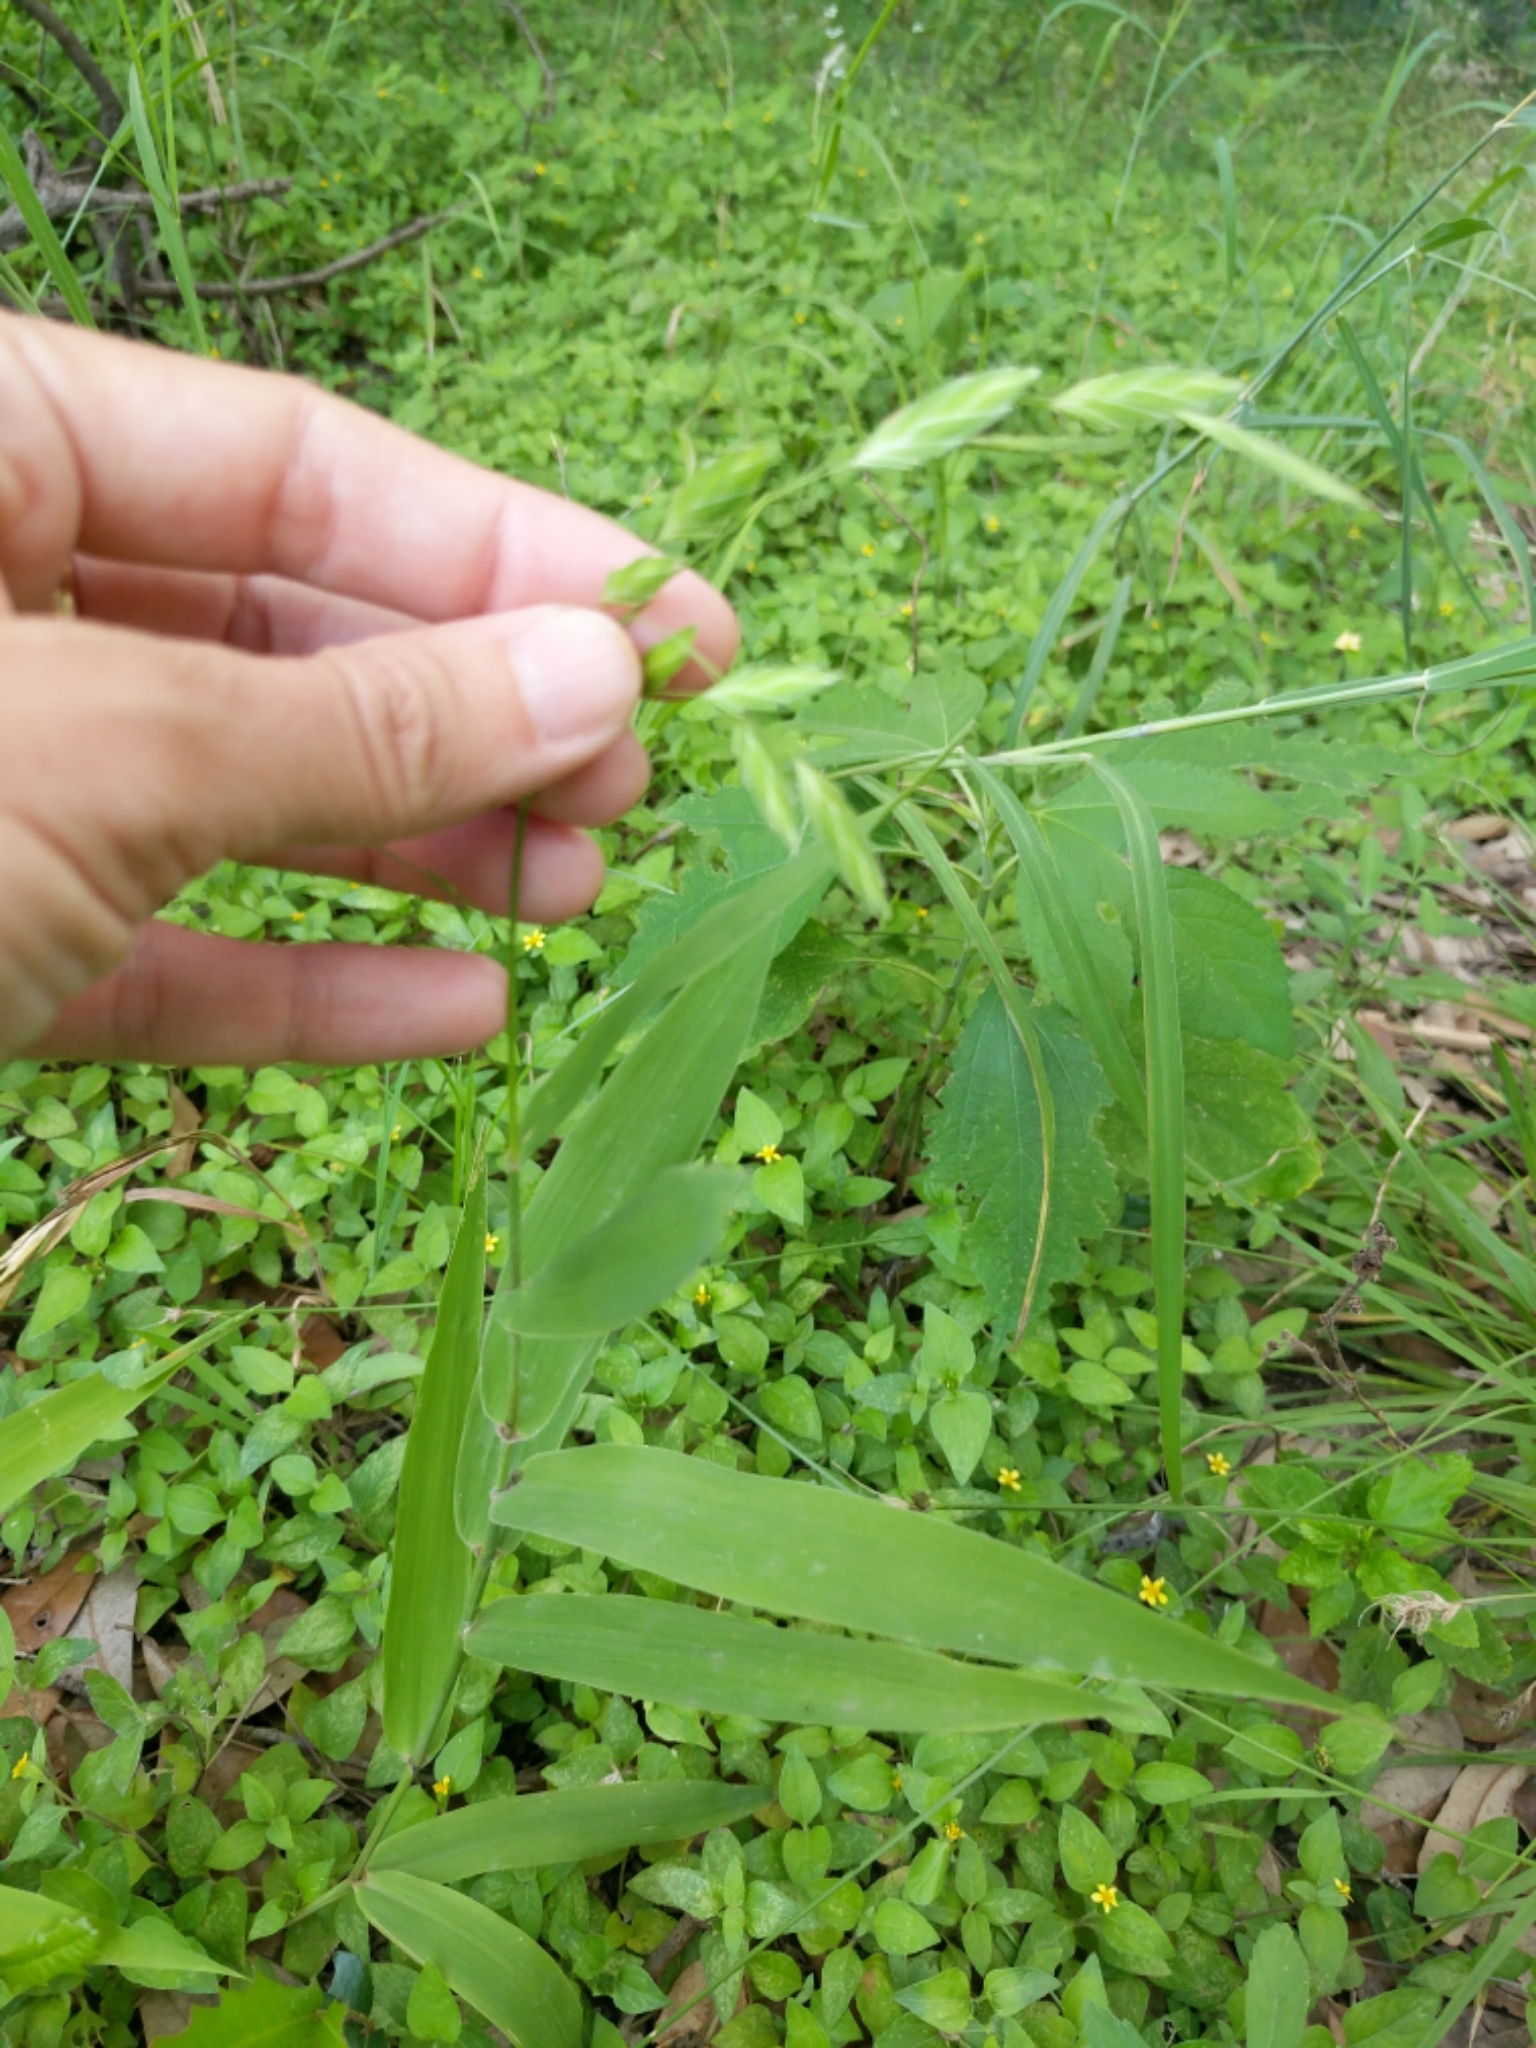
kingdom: Plantae
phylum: Tracheophyta
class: Liliopsida
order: Poales
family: Poaceae
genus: Chasmanthium
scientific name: Chasmanthium latifolium
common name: Broad-leaved chasmanthium
